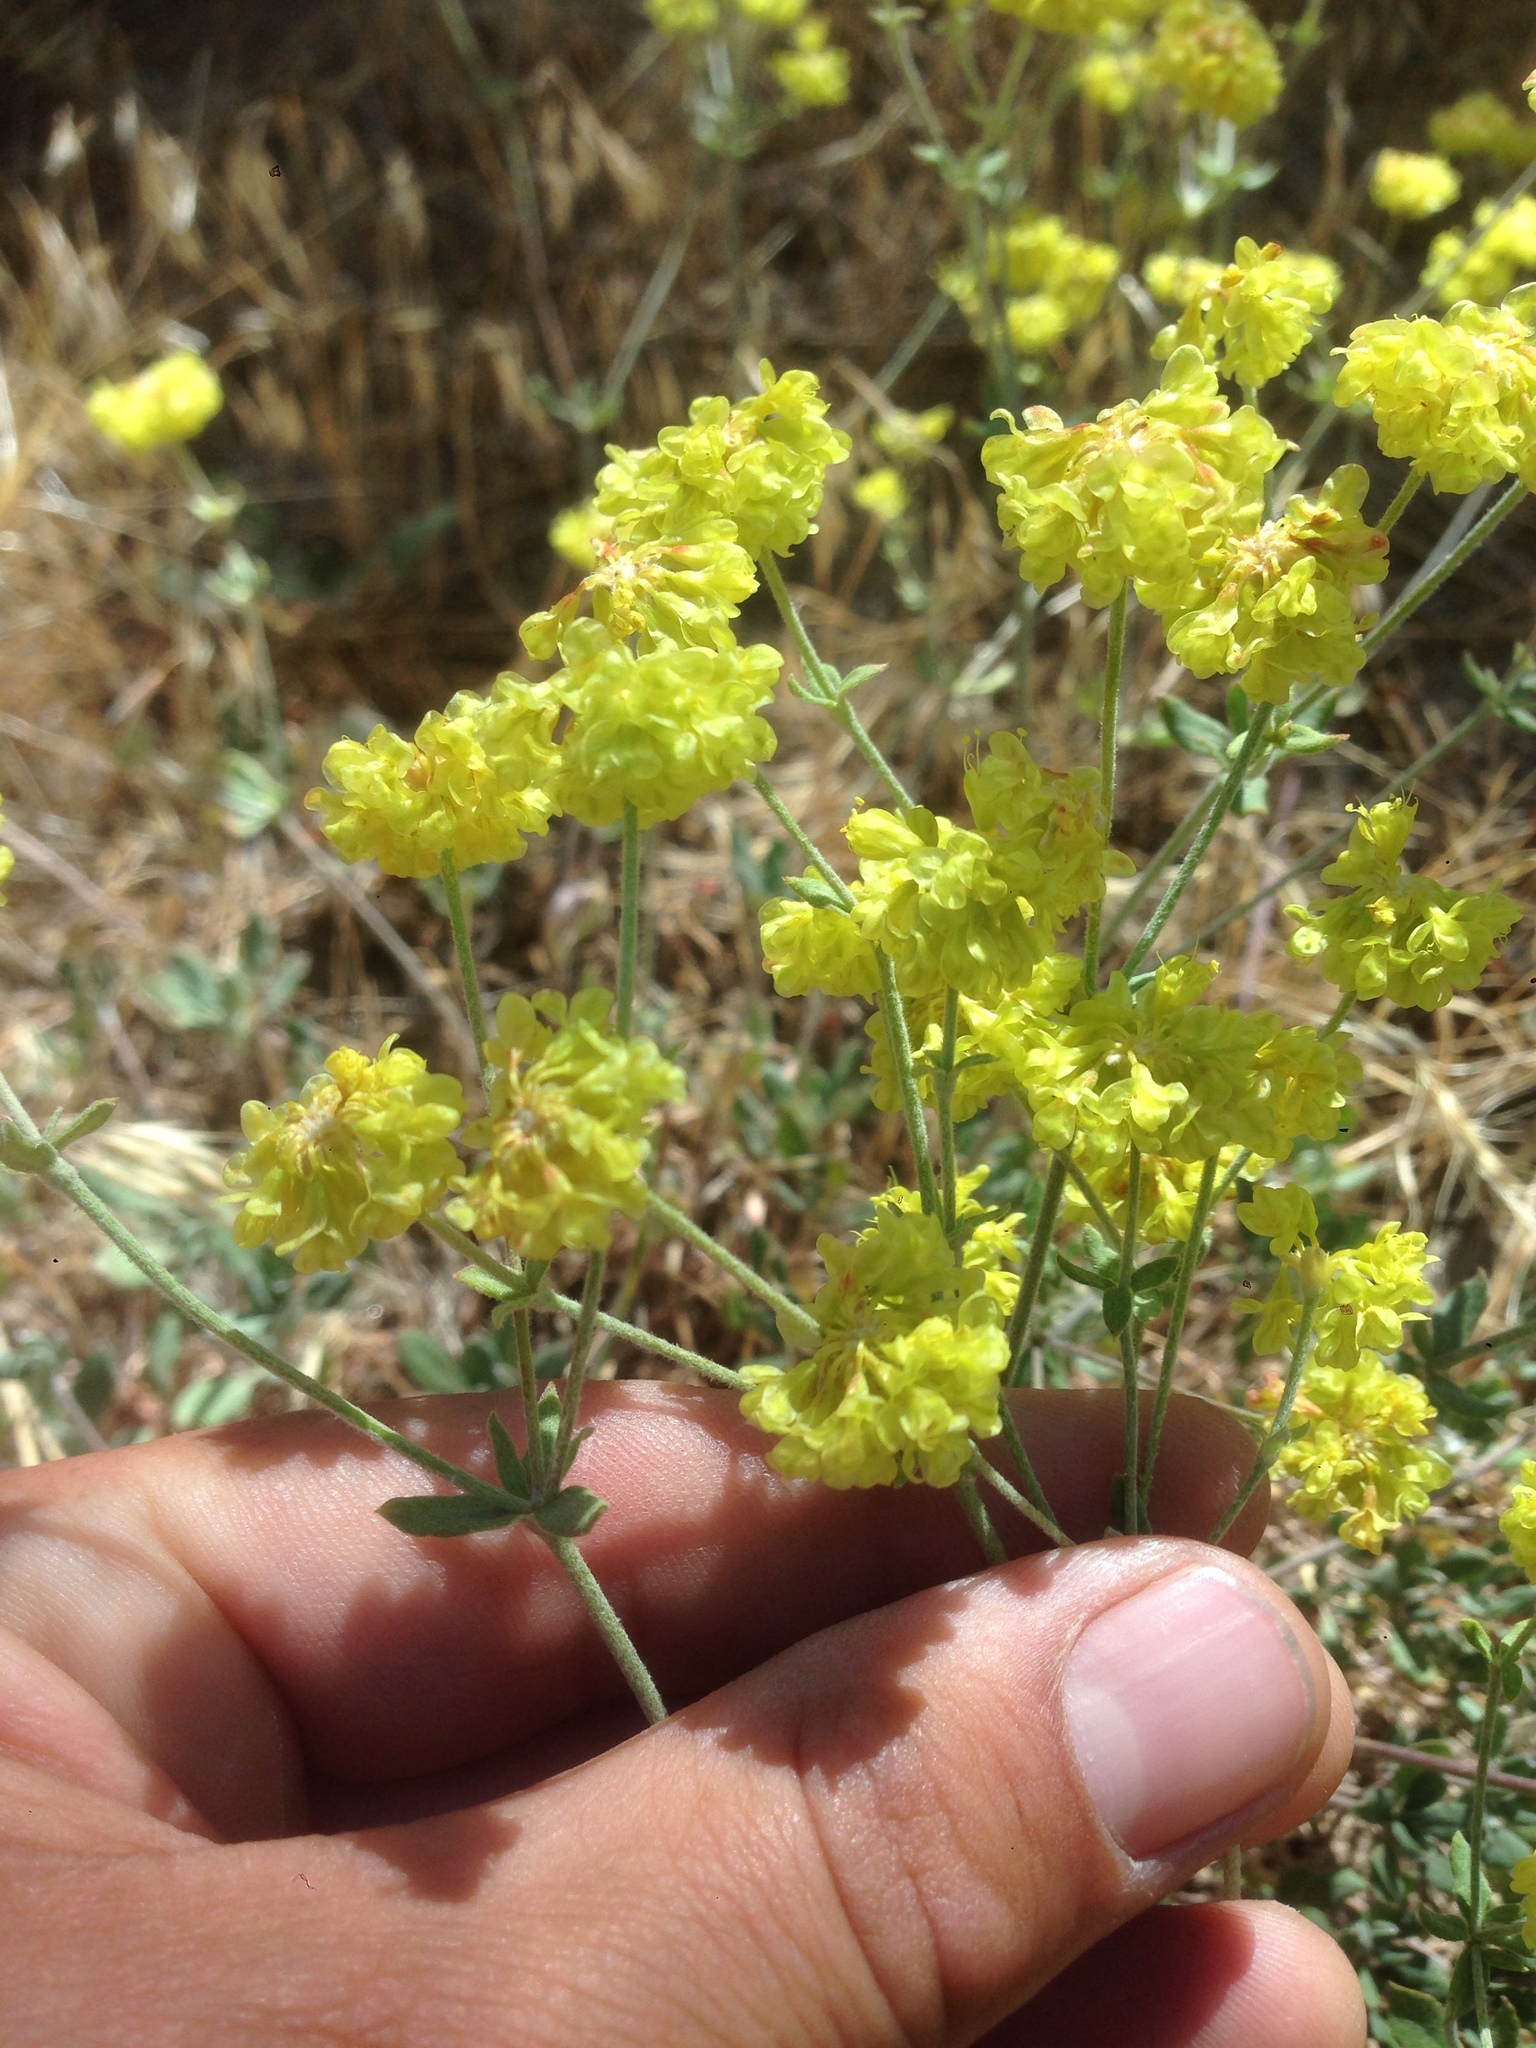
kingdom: Plantae
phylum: Tracheophyta
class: Magnoliopsida
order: Caryophyllales
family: Polygonaceae
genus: Eriogonum
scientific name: Eriogonum umbellatum
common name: Sulfur-buckwheat
